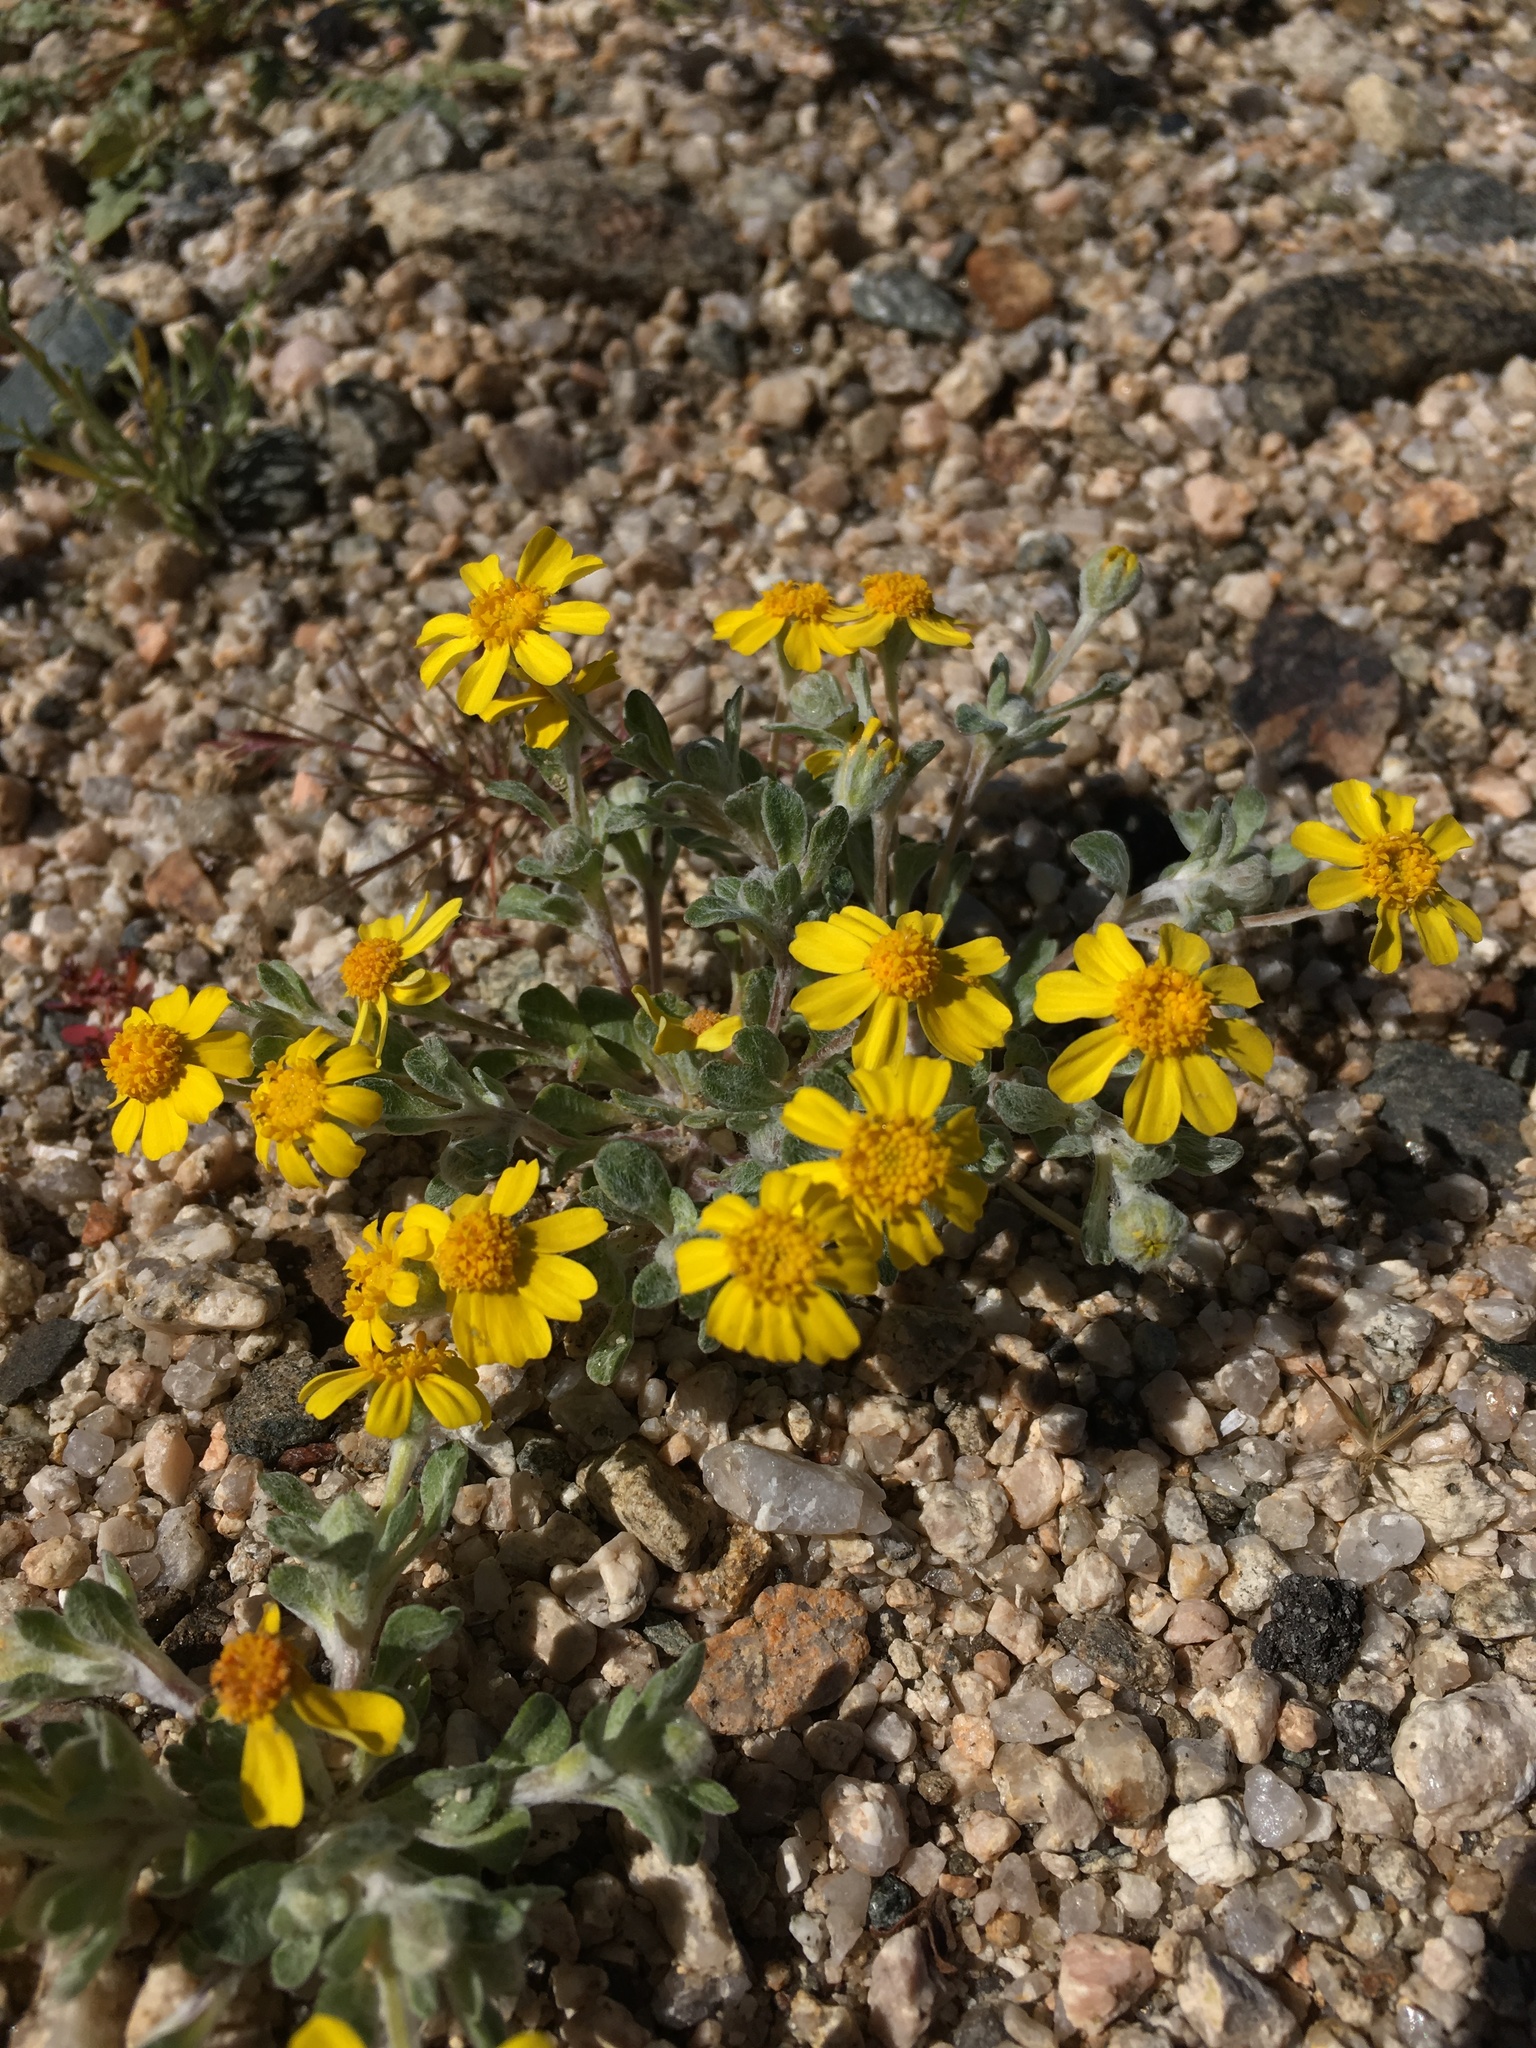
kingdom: Plantae
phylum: Tracheophyta
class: Magnoliopsida
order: Asterales
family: Asteraceae
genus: Eriophyllum
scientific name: Eriophyllum wallacei
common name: Wallace's woolly daisy
